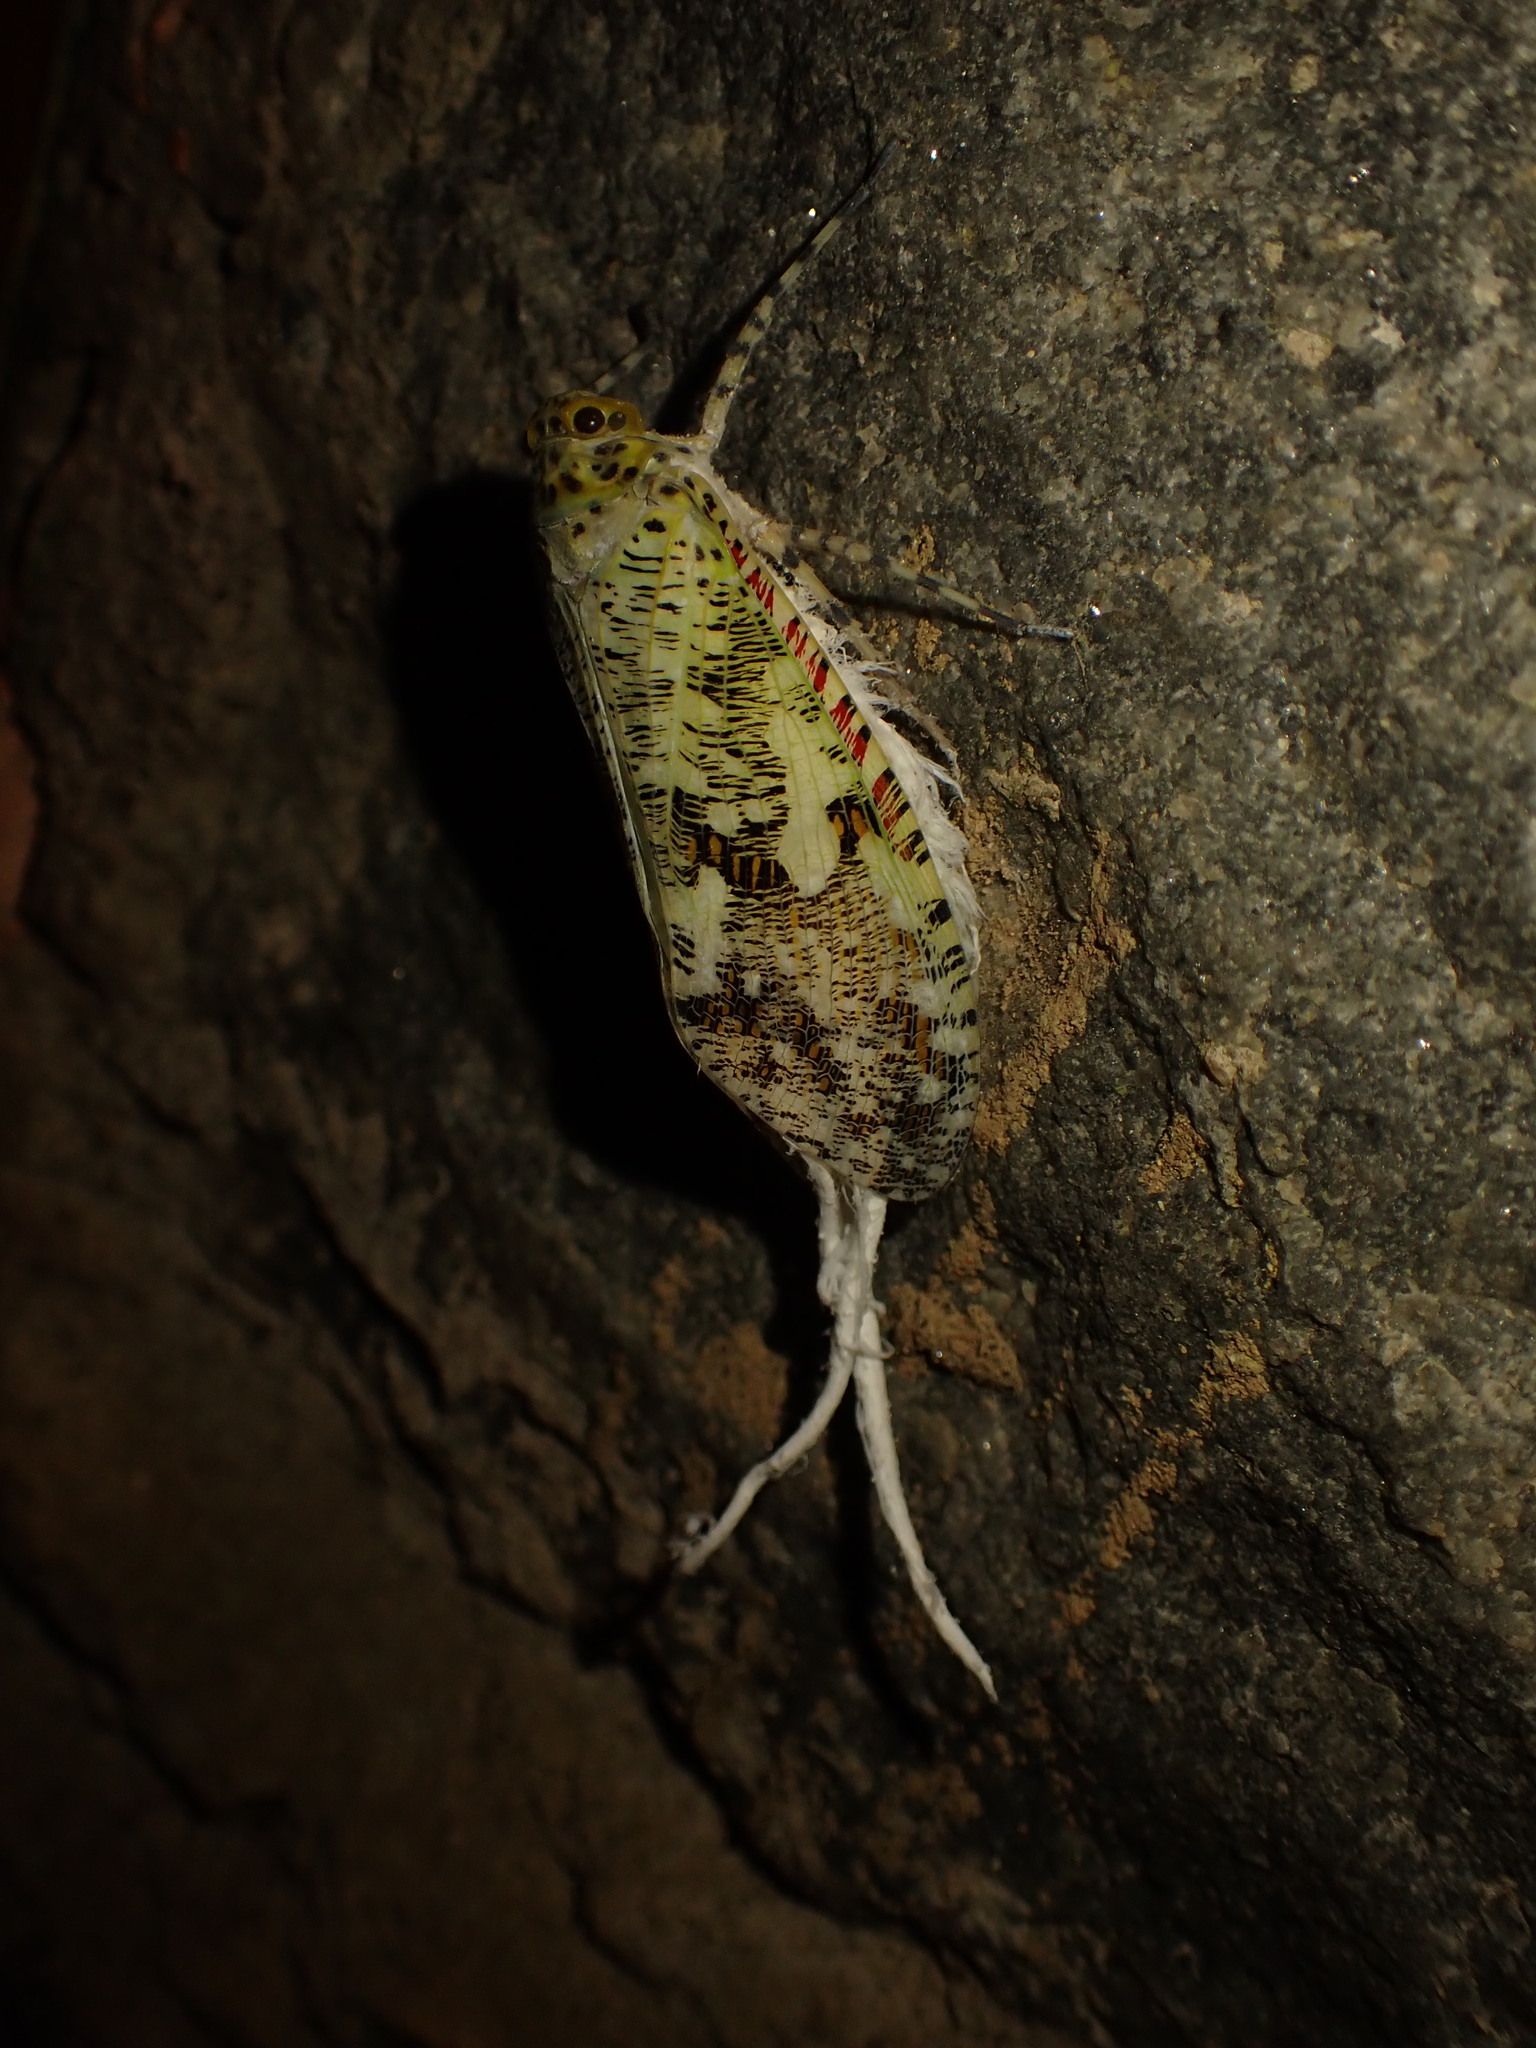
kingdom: Animalia
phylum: Arthropoda
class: Insecta
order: Hemiptera
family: Fulgoridae
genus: Phenax
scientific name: Phenax variegata
